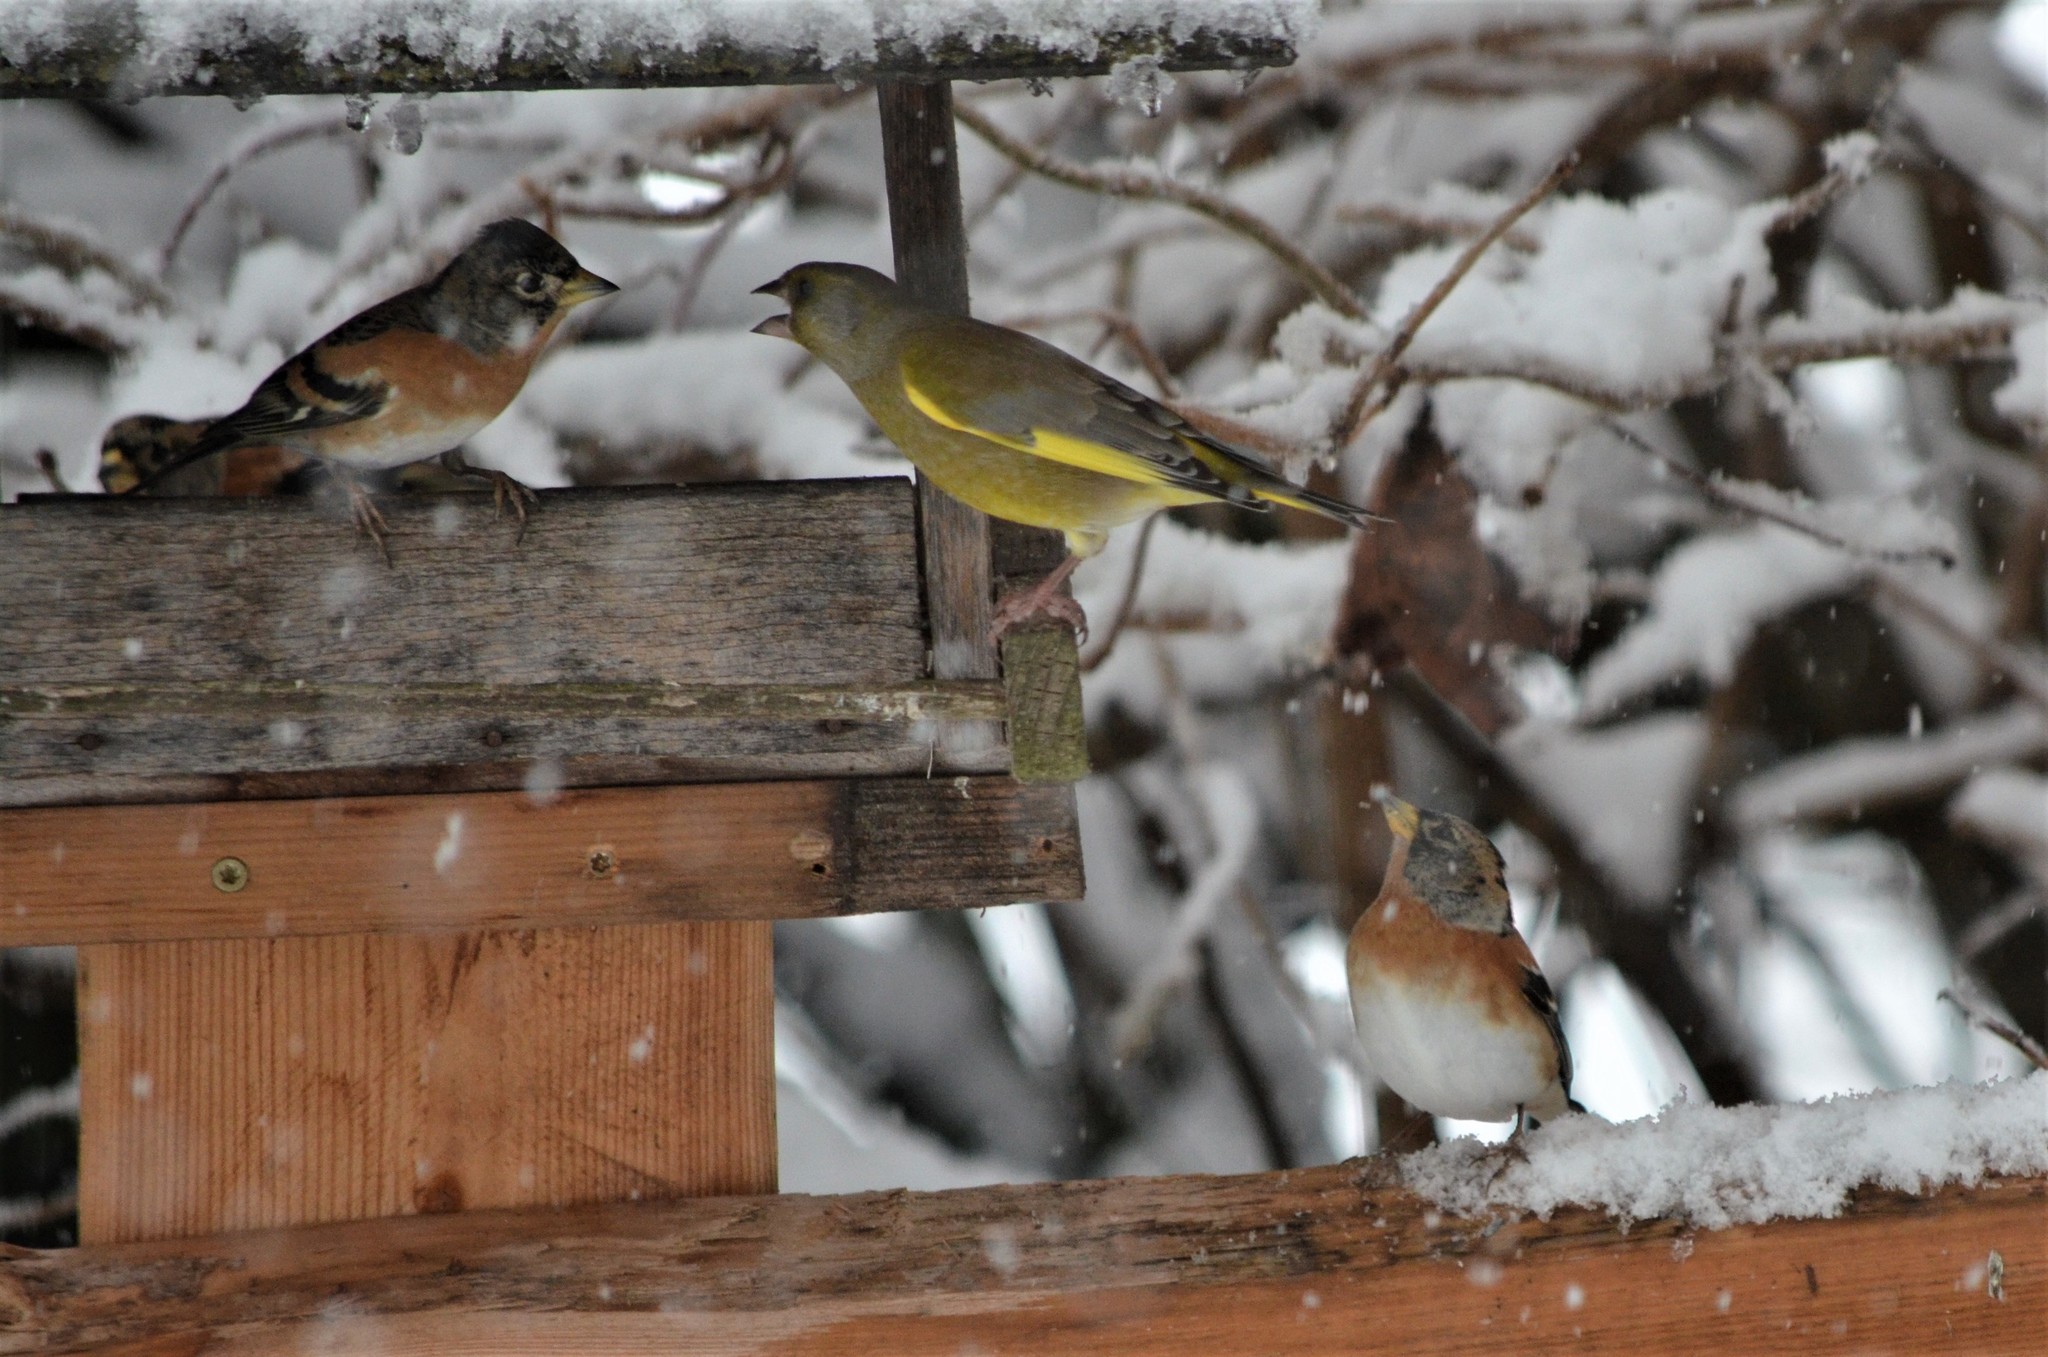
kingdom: Animalia
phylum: Chordata
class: Aves
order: Passeriformes
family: Fringillidae
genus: Fringilla
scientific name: Fringilla montifringilla
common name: Brambling
